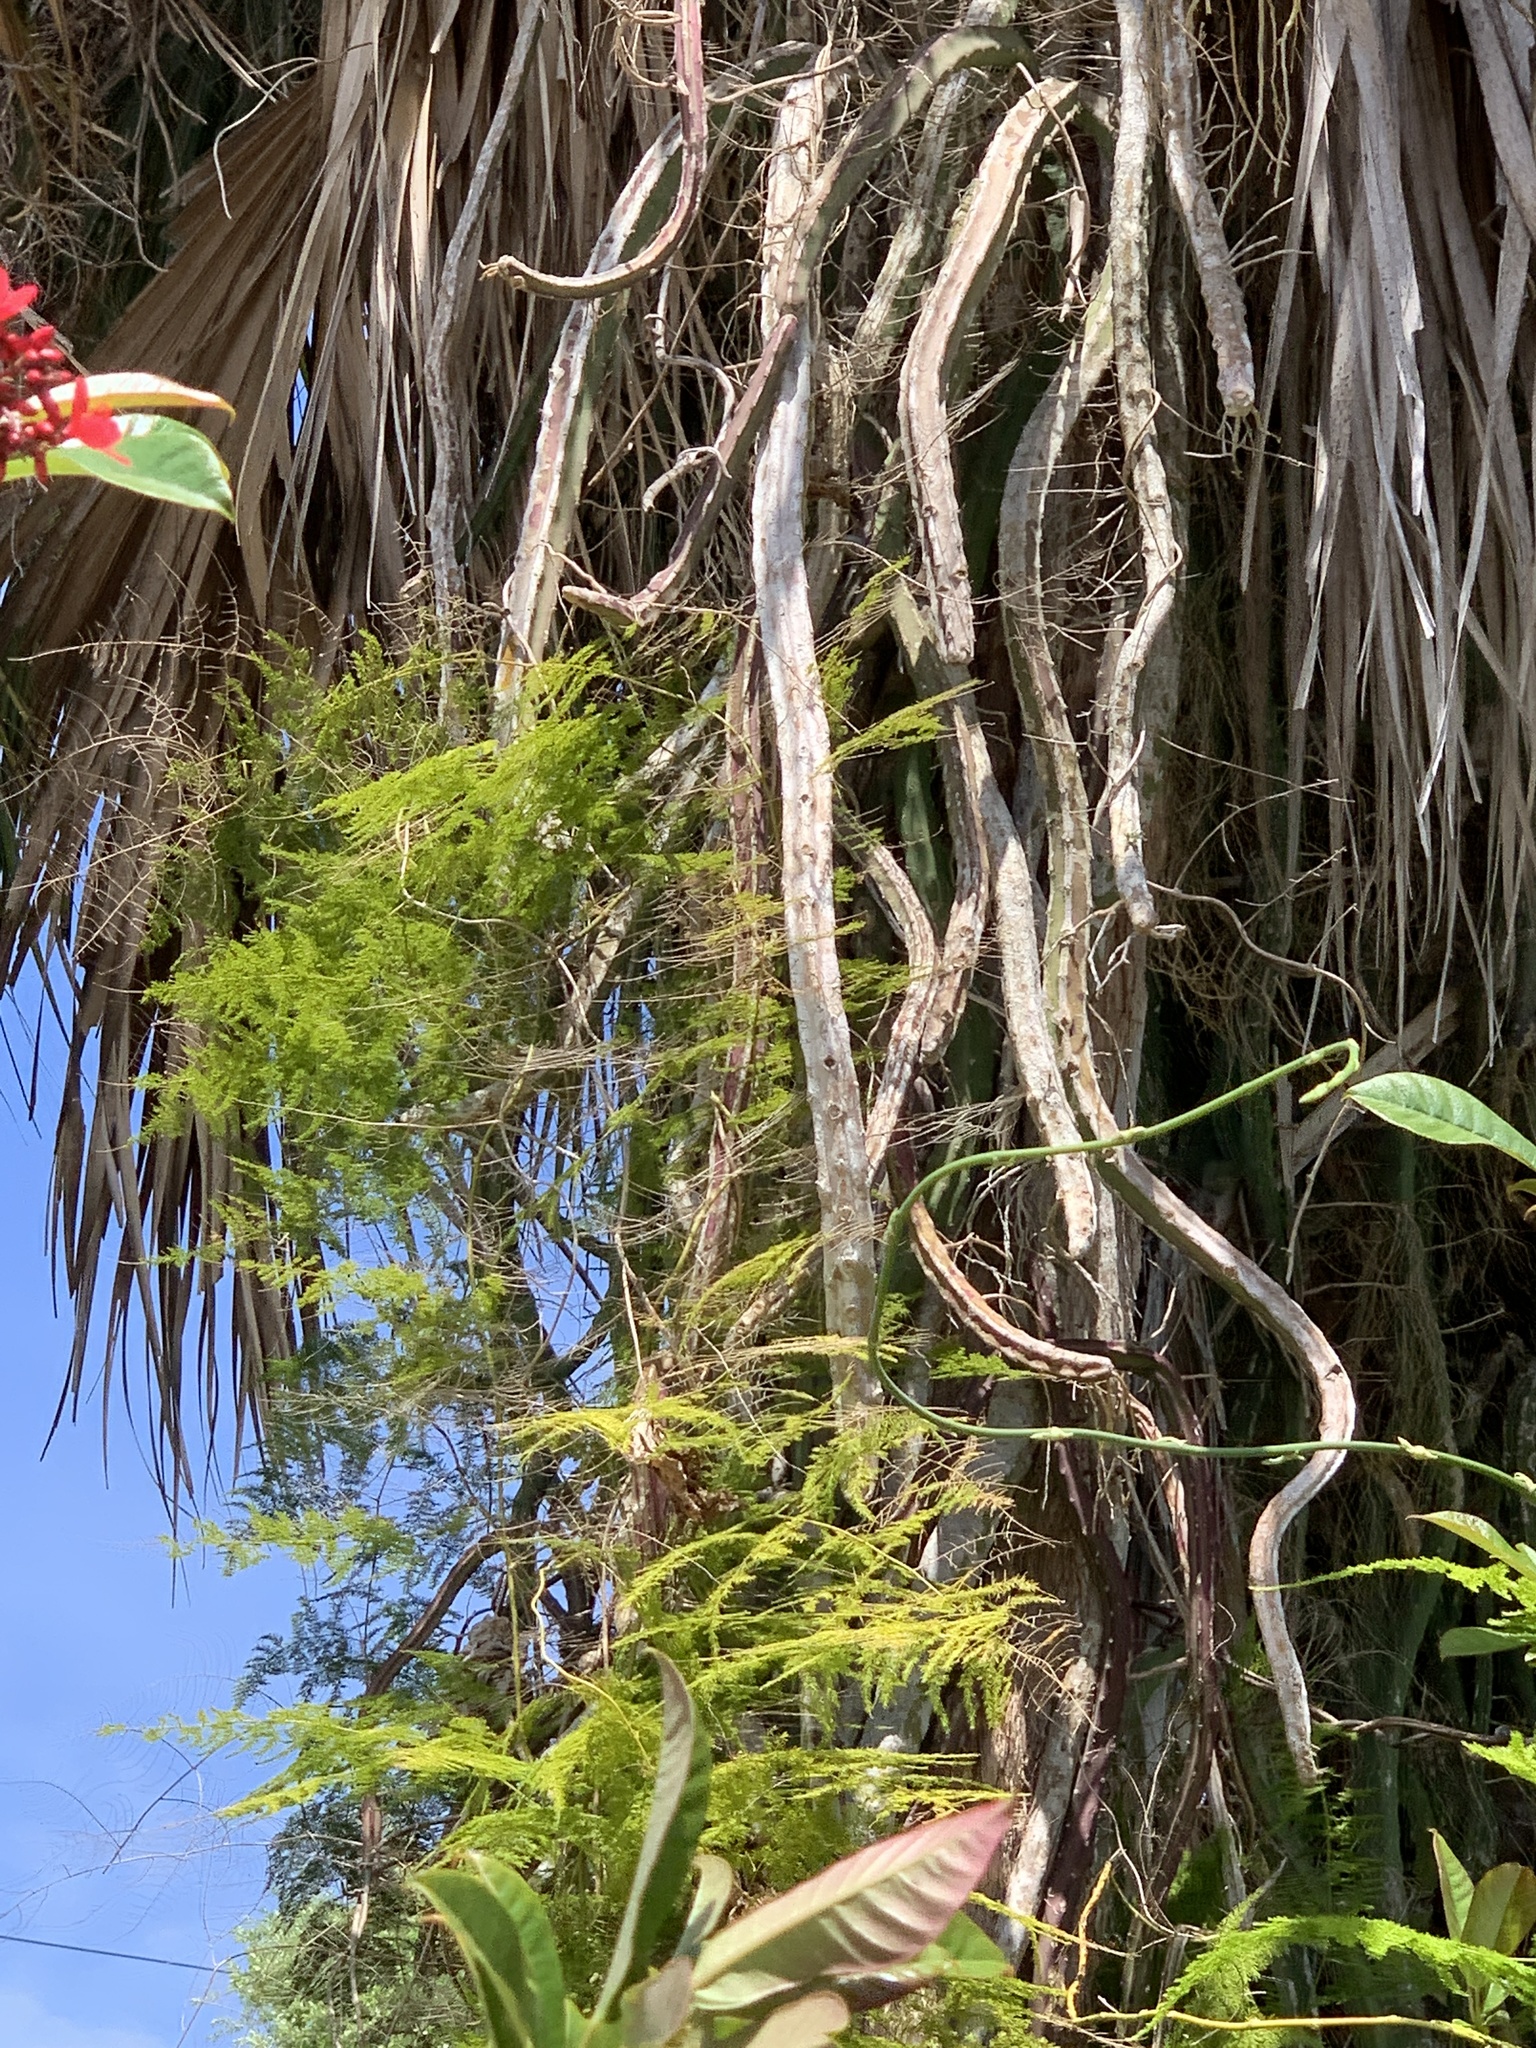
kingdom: Plantae
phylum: Tracheophyta
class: Liliopsida
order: Asparagales
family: Asparagaceae
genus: Asparagus
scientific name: Asparagus setaceus
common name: Common asparagus fern
